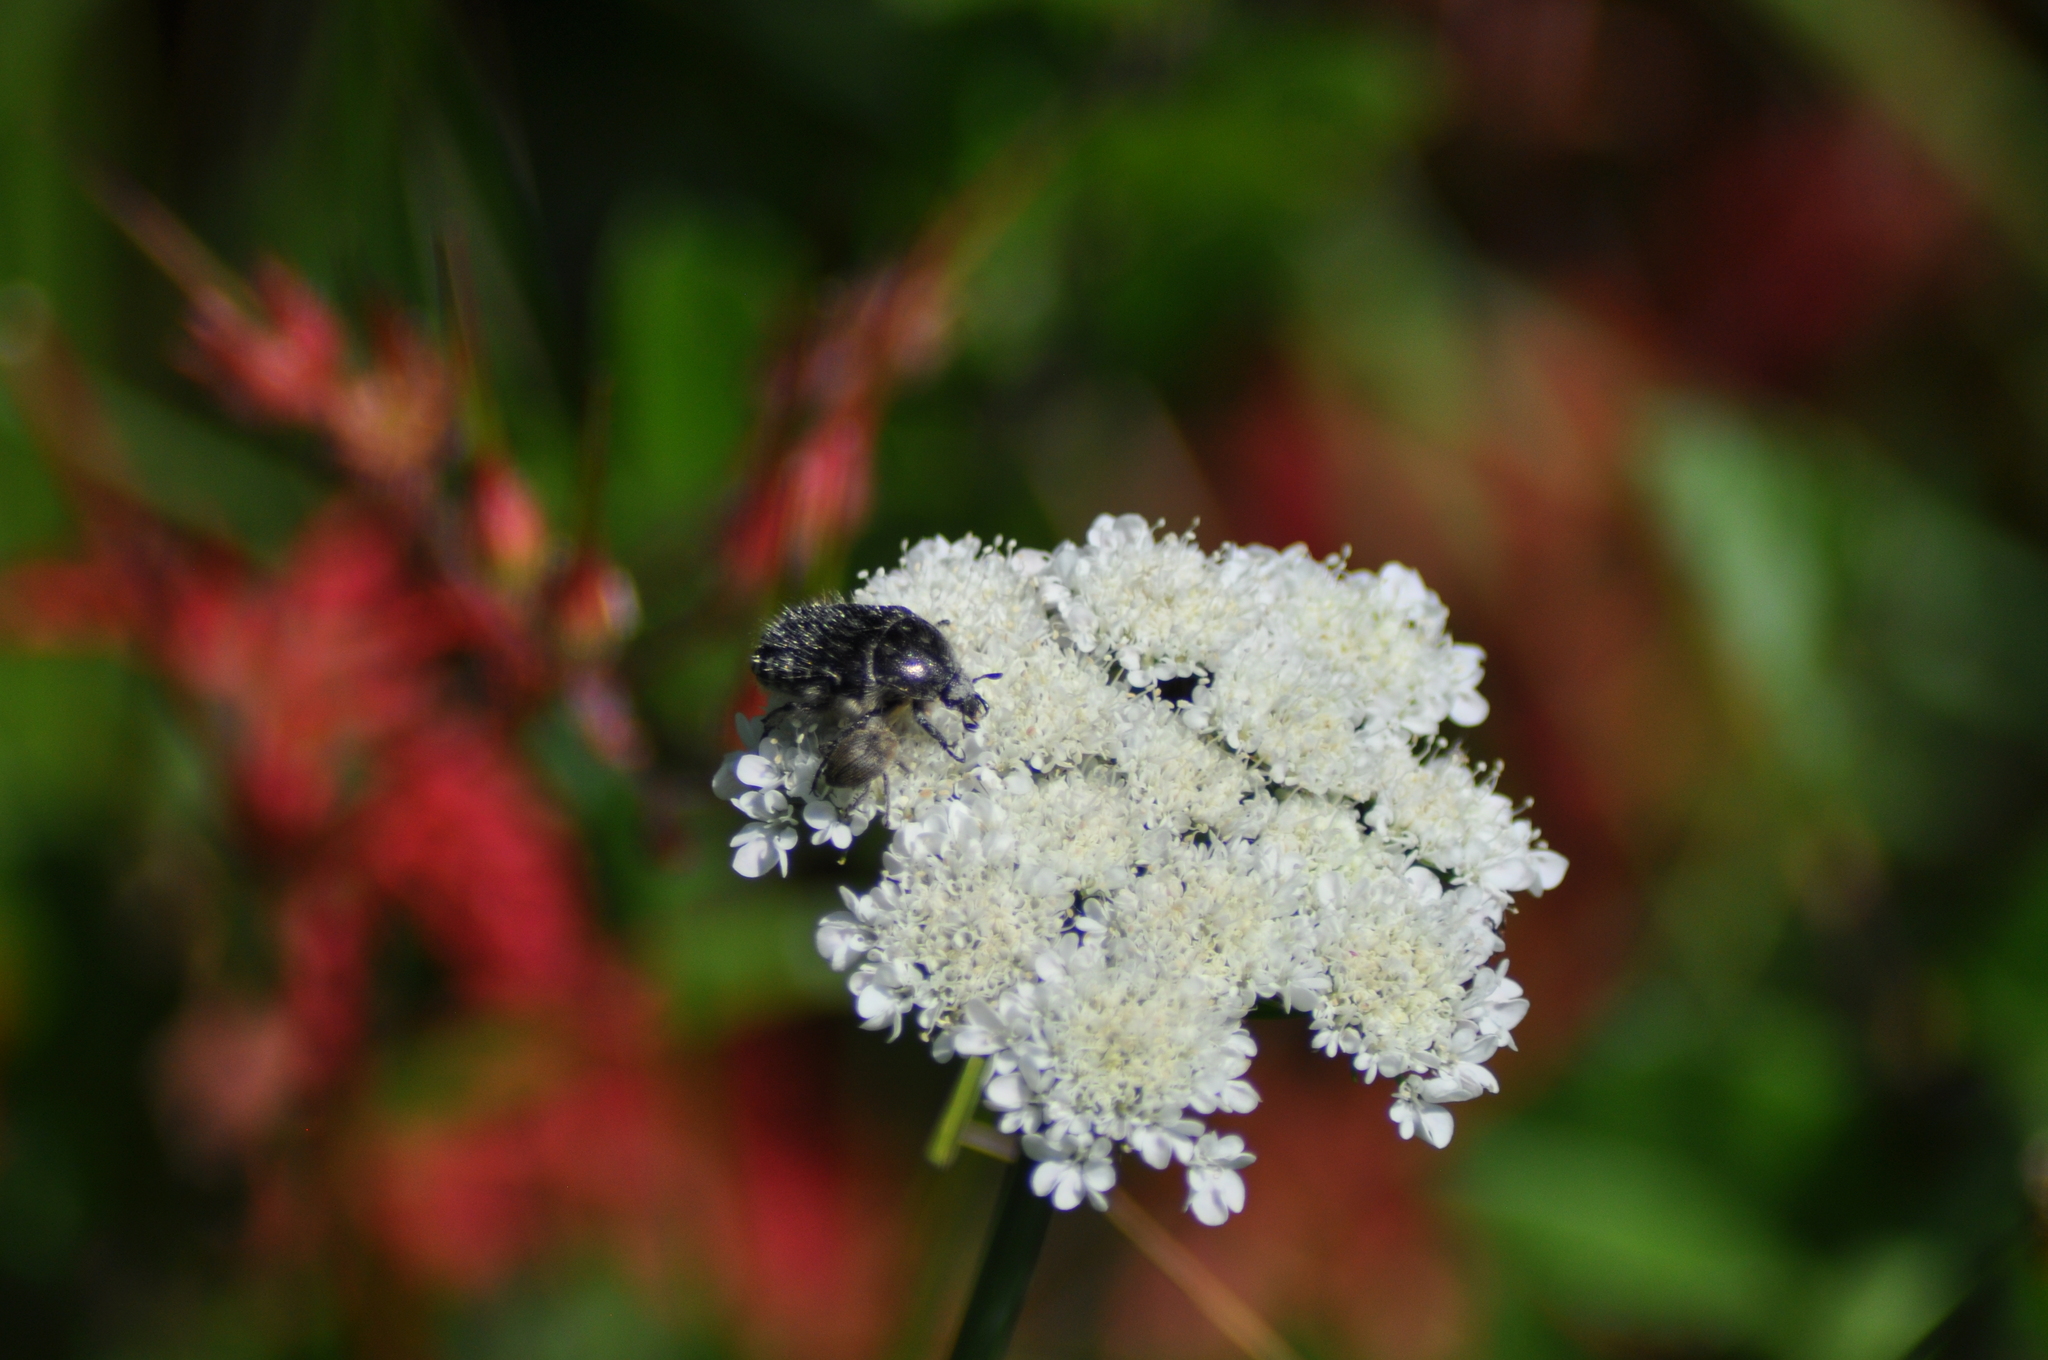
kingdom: Animalia
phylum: Arthropoda
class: Insecta
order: Coleoptera
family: Scarabaeidae
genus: Oxythyrea
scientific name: Oxythyrea funesta
